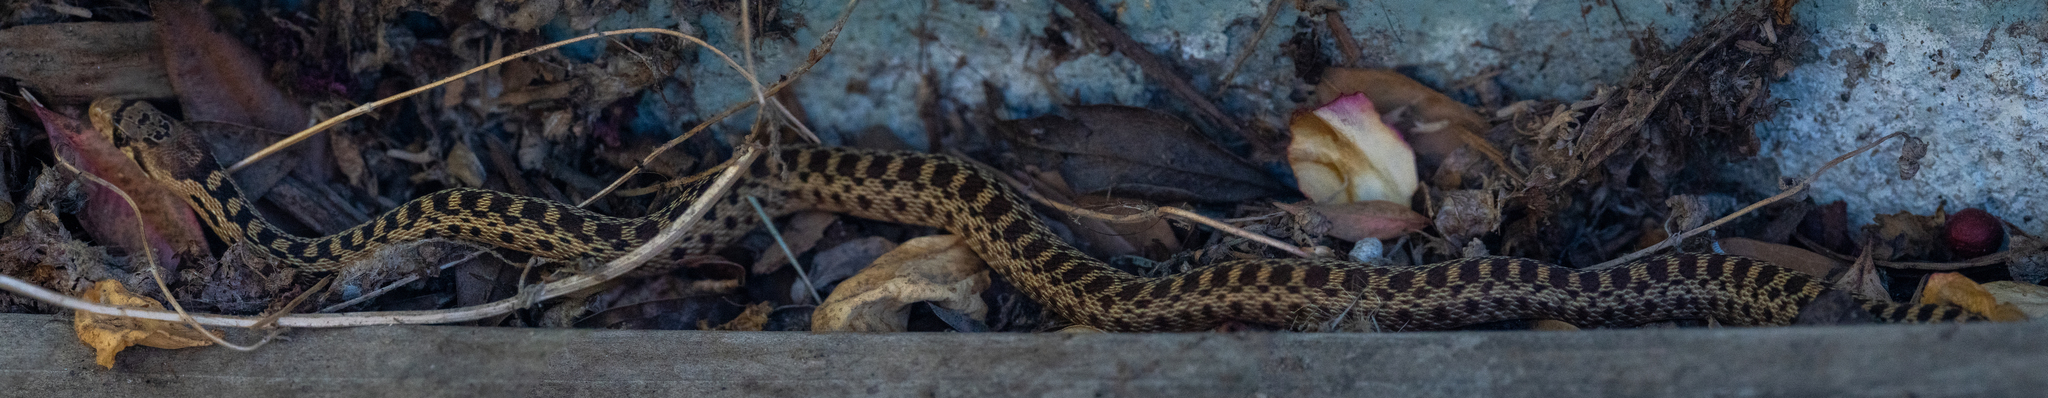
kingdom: Animalia
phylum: Chordata
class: Squamata
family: Colubridae
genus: Pituophis
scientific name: Pituophis catenifer
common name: Gopher snake
